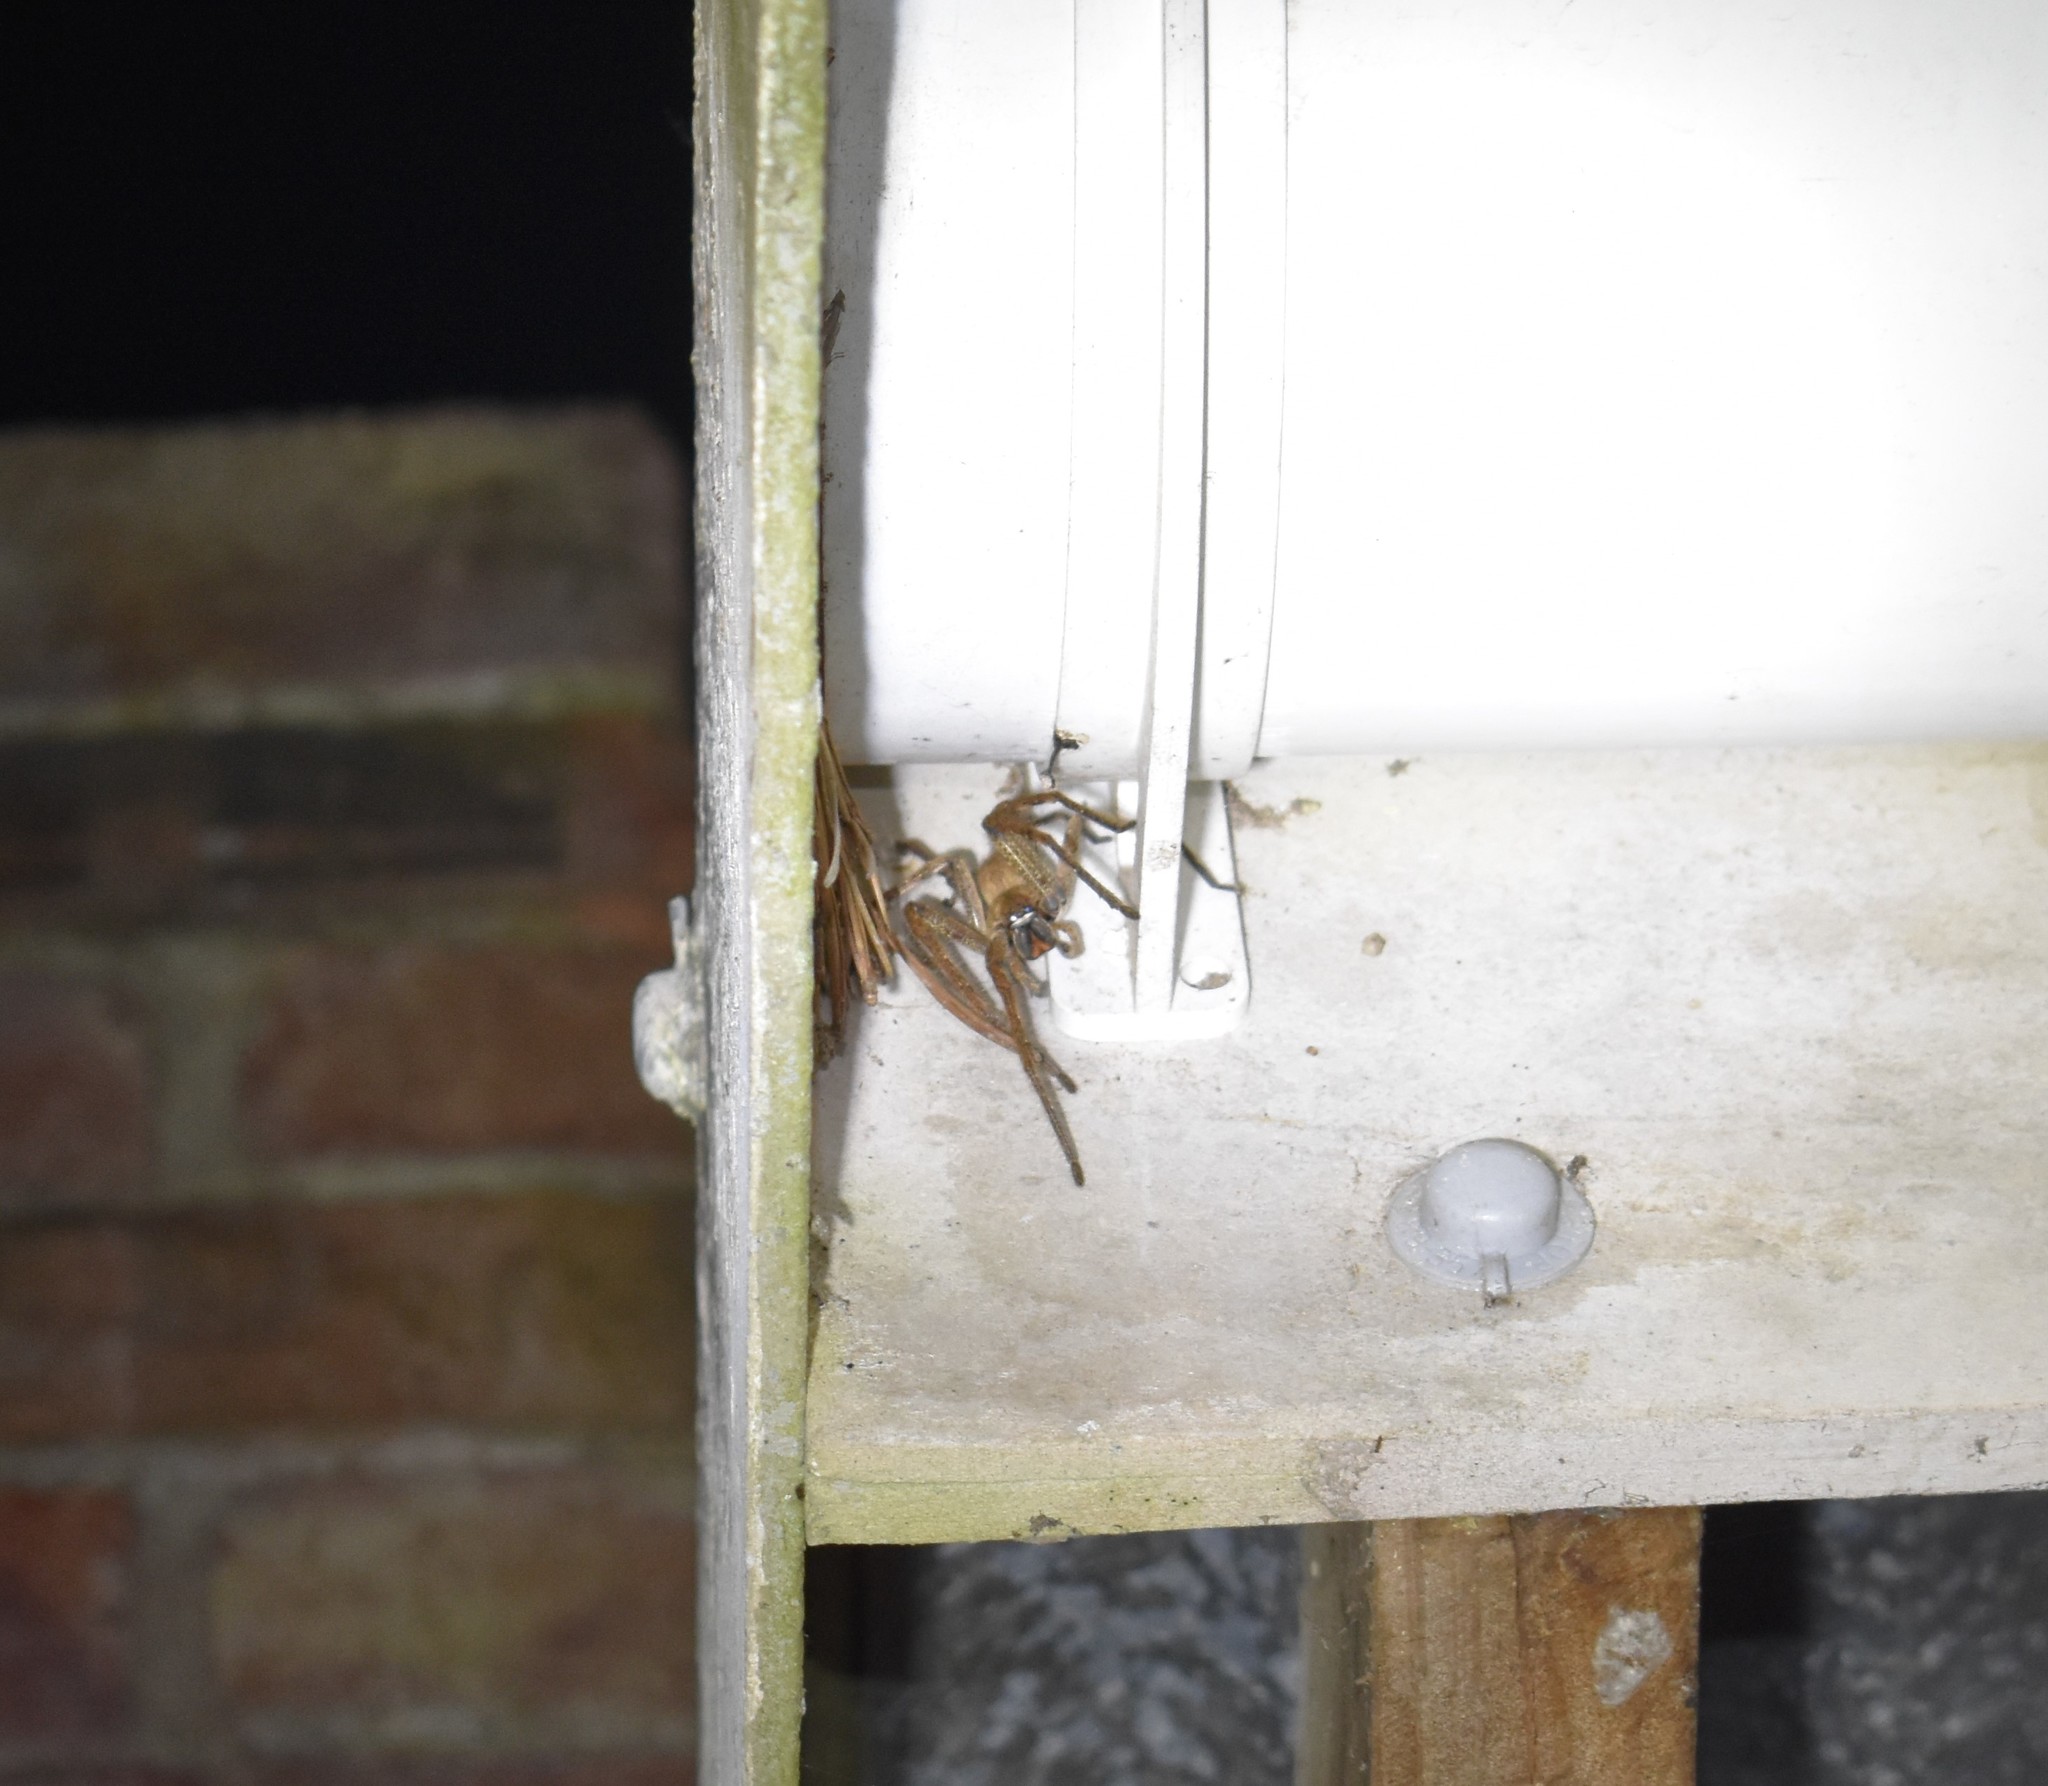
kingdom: Animalia
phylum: Arthropoda
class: Arachnida
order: Araneae
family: Sparassidae
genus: Palystes
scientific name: Palystes superciliosus
